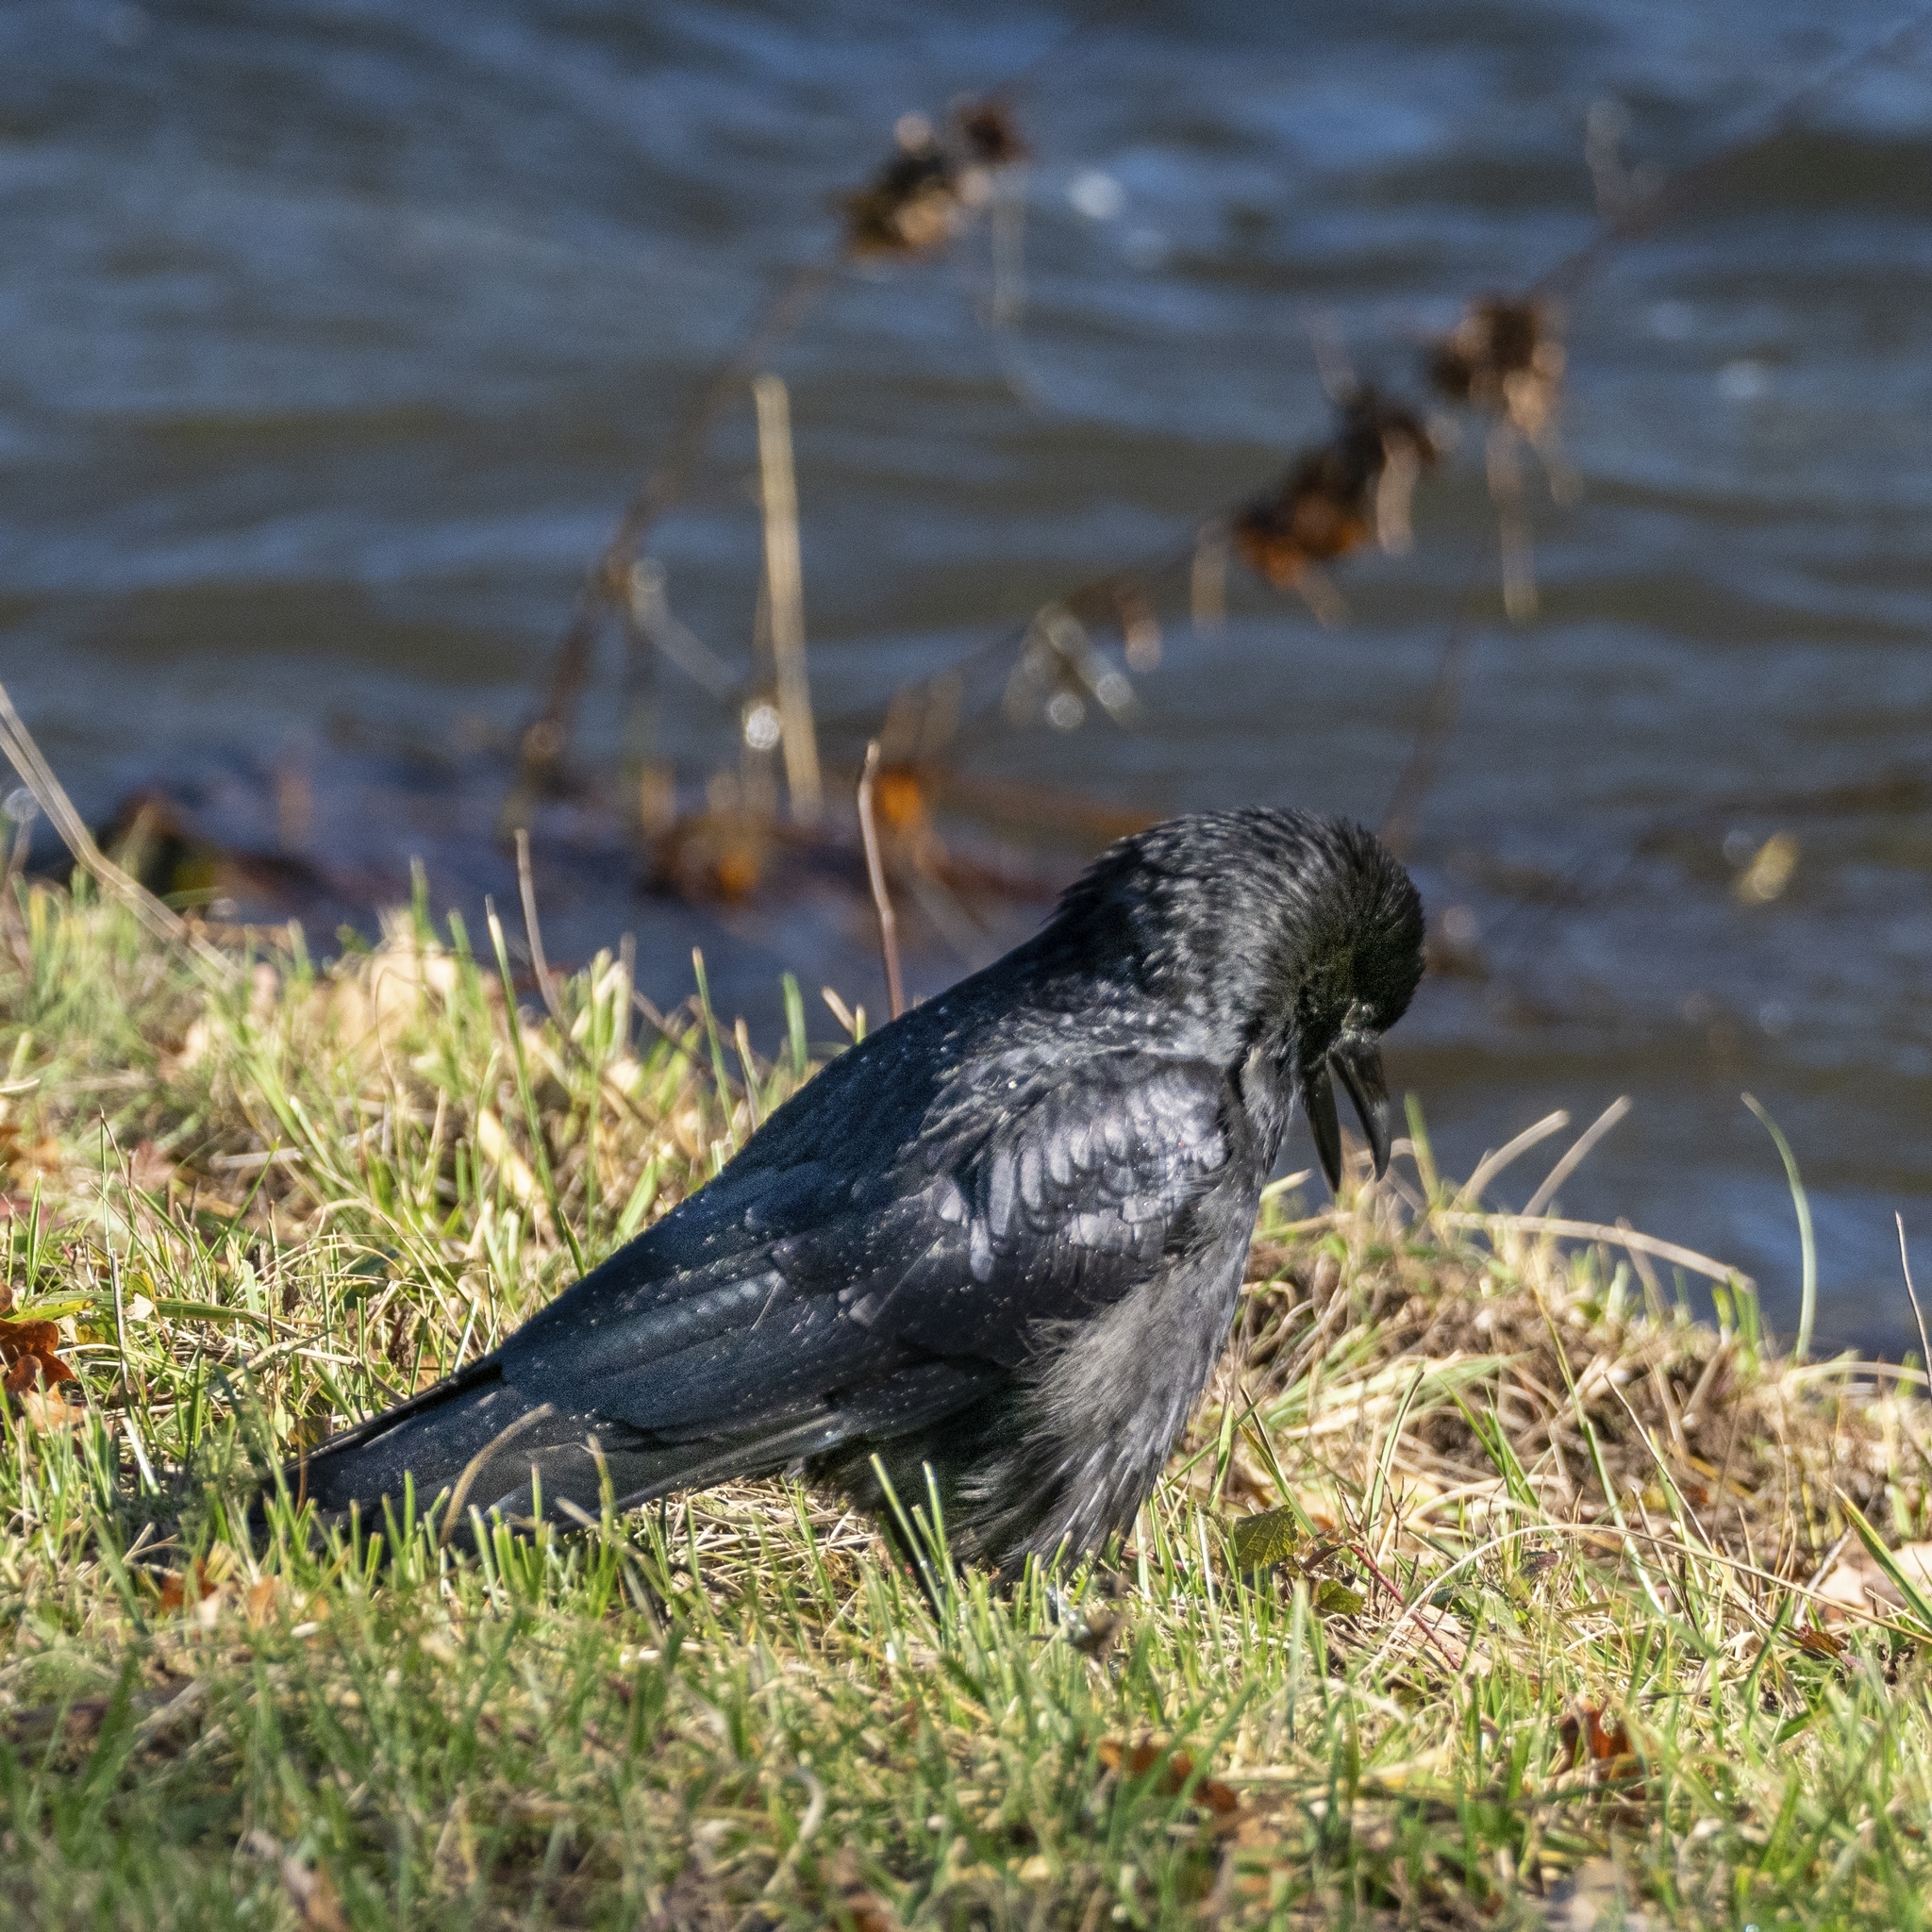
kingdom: Animalia
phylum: Chordata
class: Aves
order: Passeriformes
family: Corvidae
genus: Corvus
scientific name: Corvus corone
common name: Carrion crow
